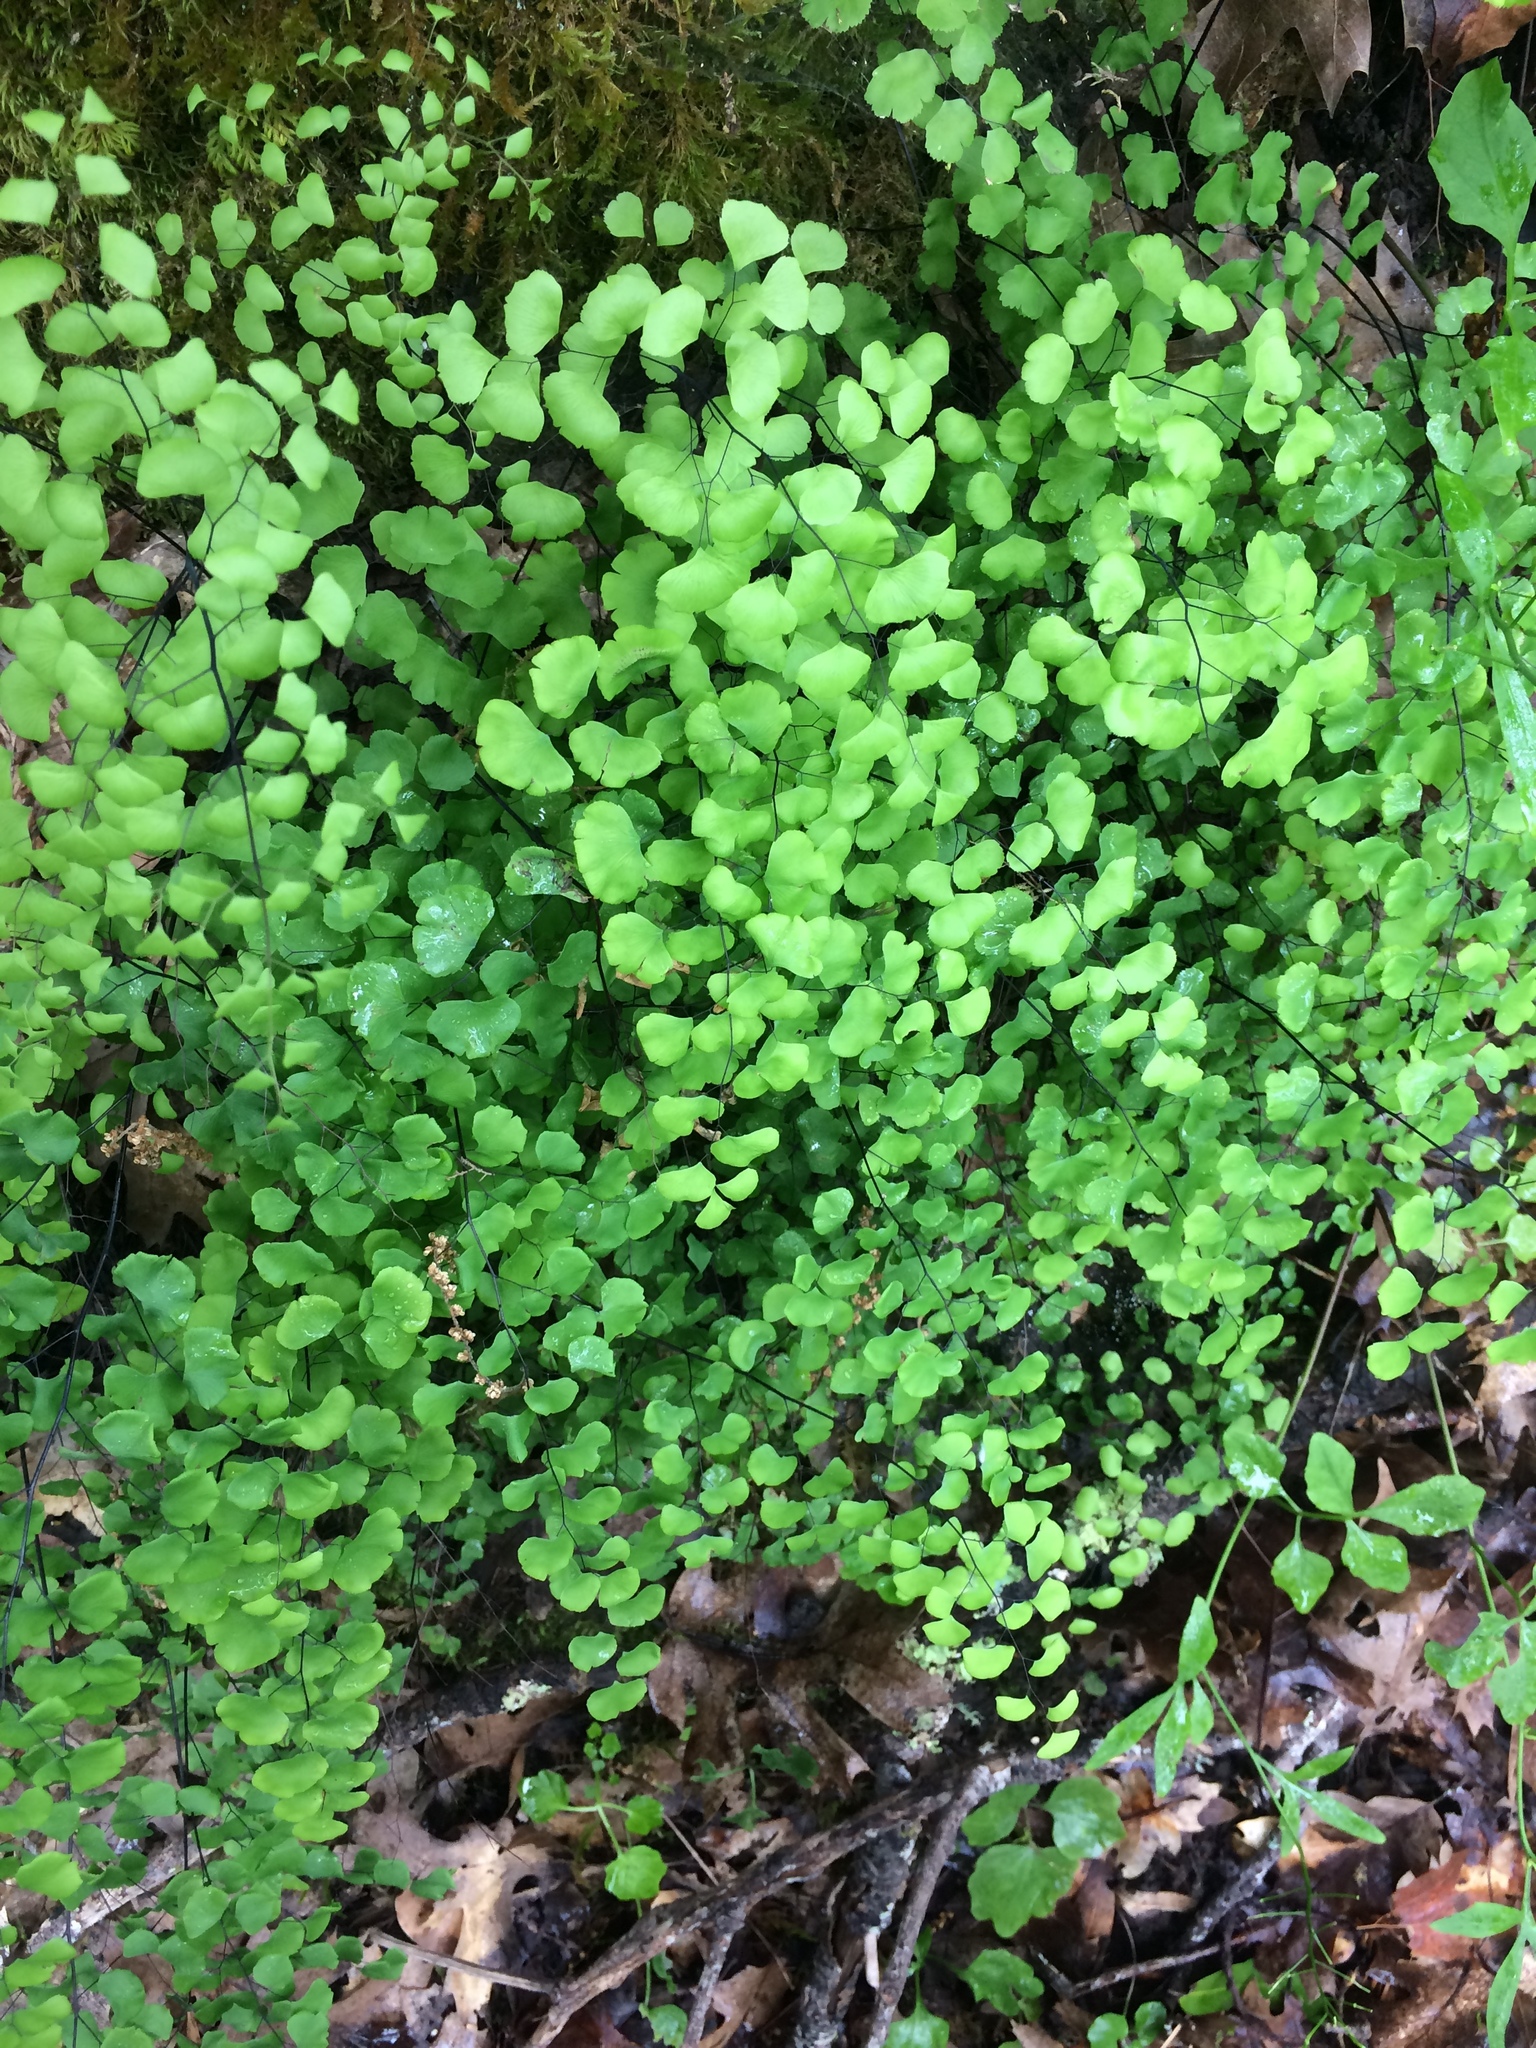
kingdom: Plantae
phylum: Tracheophyta
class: Polypodiopsida
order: Polypodiales
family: Pteridaceae
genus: Adiantum
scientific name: Adiantum jordanii
